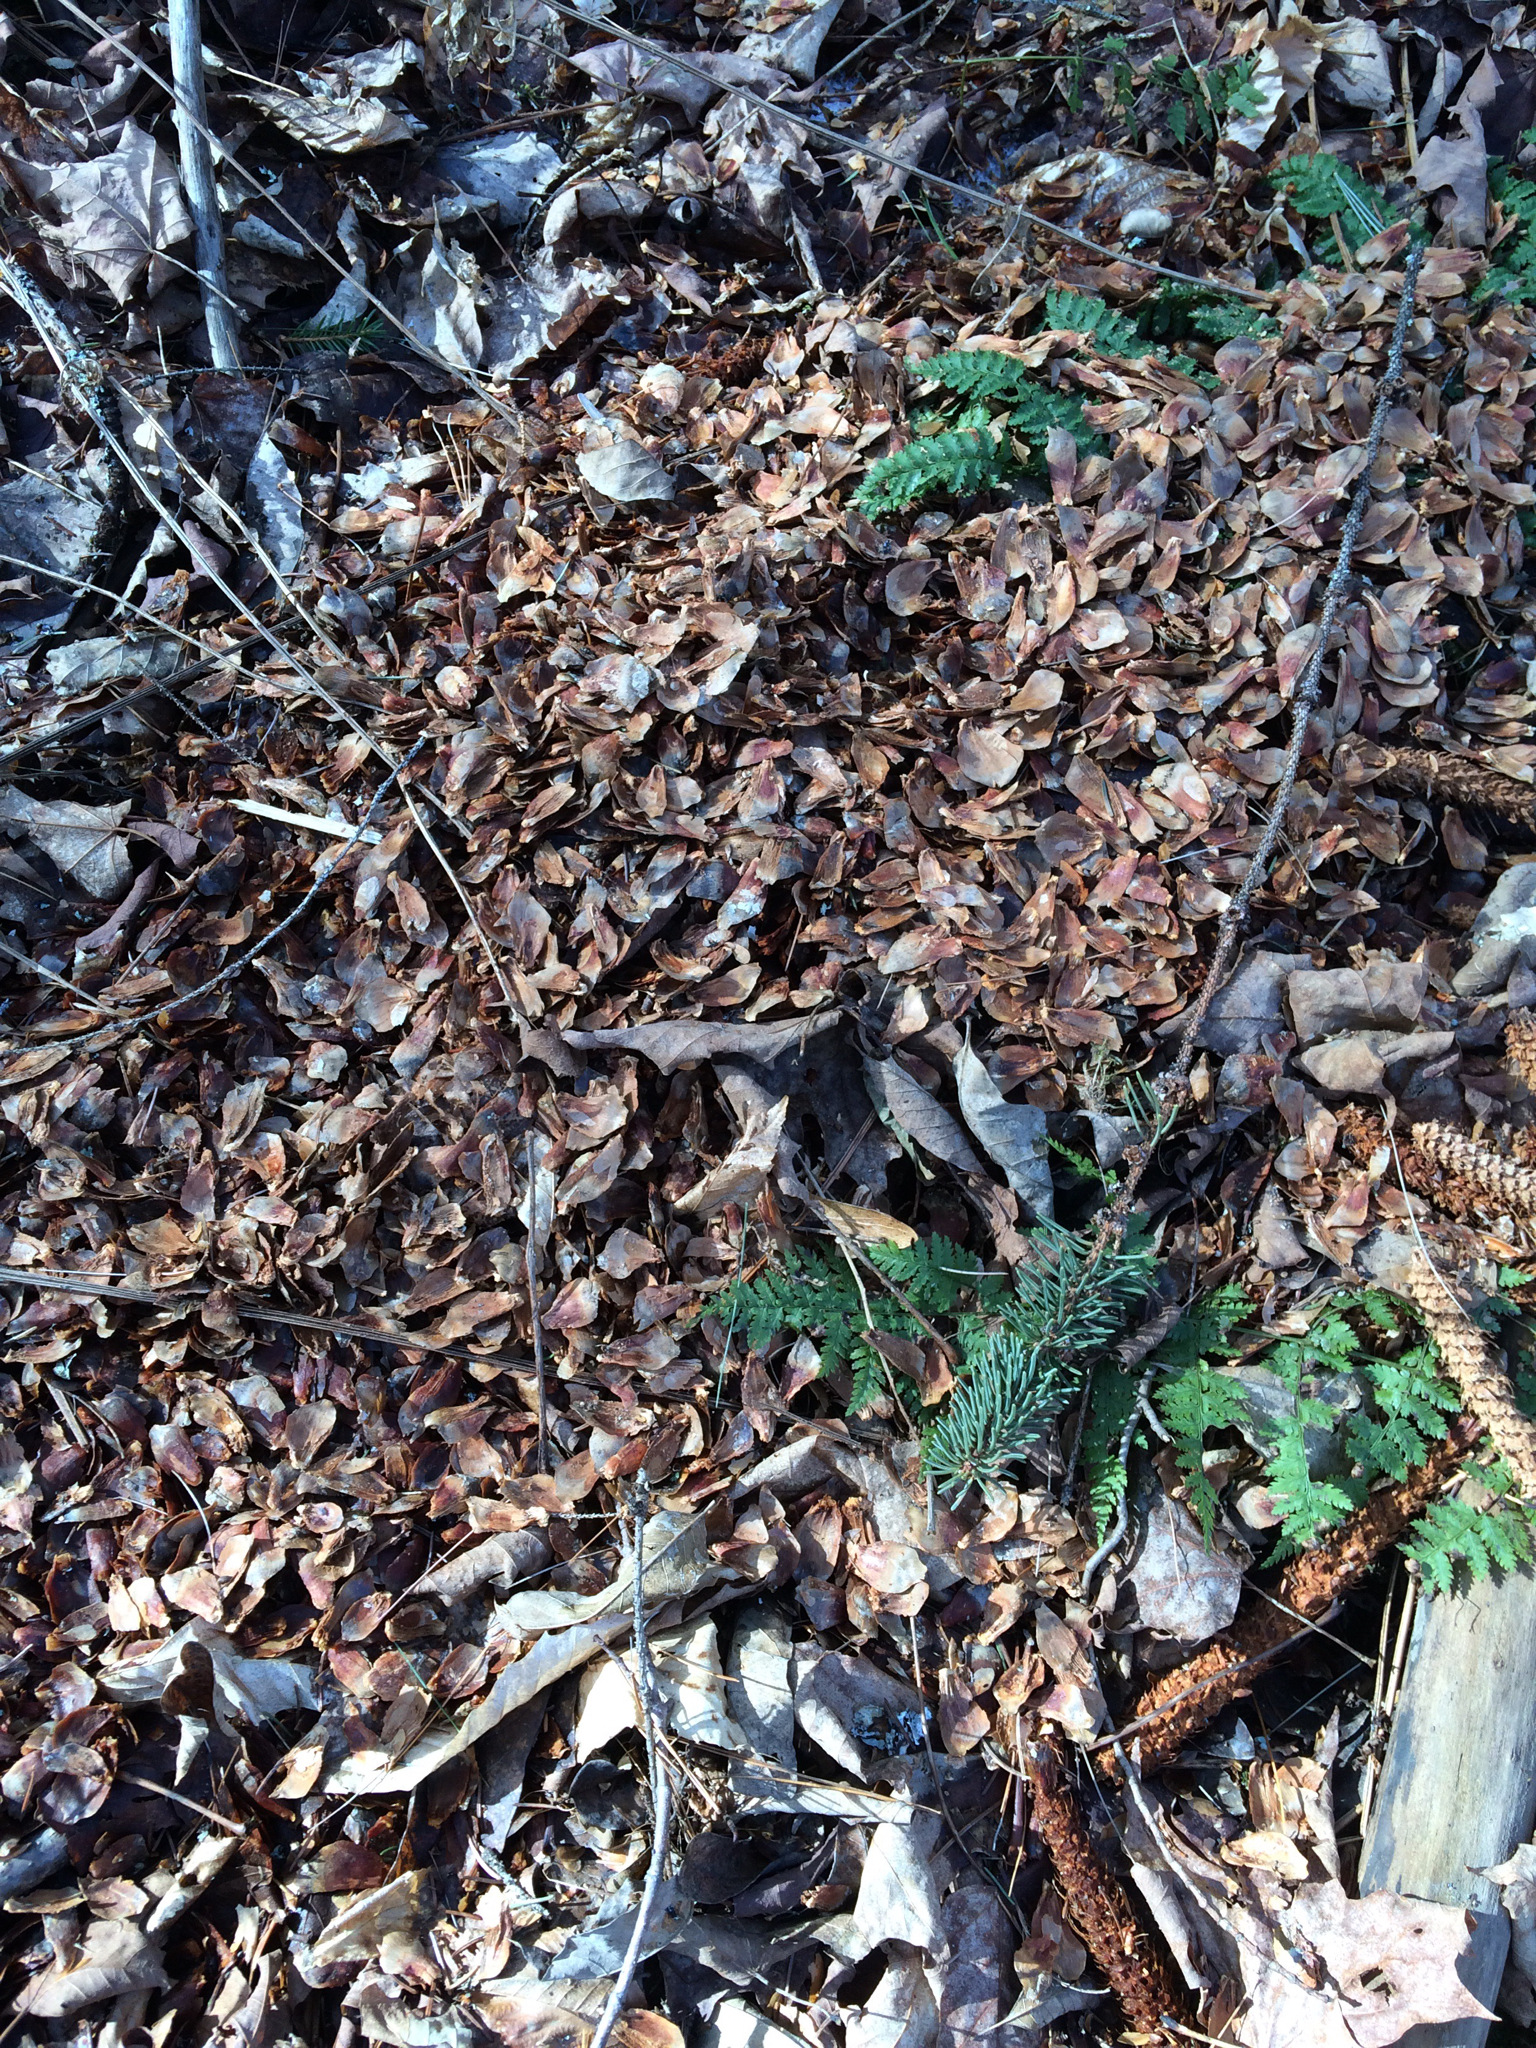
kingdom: Animalia
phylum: Chordata
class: Mammalia
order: Rodentia
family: Sciuridae
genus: Tamiasciurus
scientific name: Tamiasciurus hudsonicus
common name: Red squirrel
